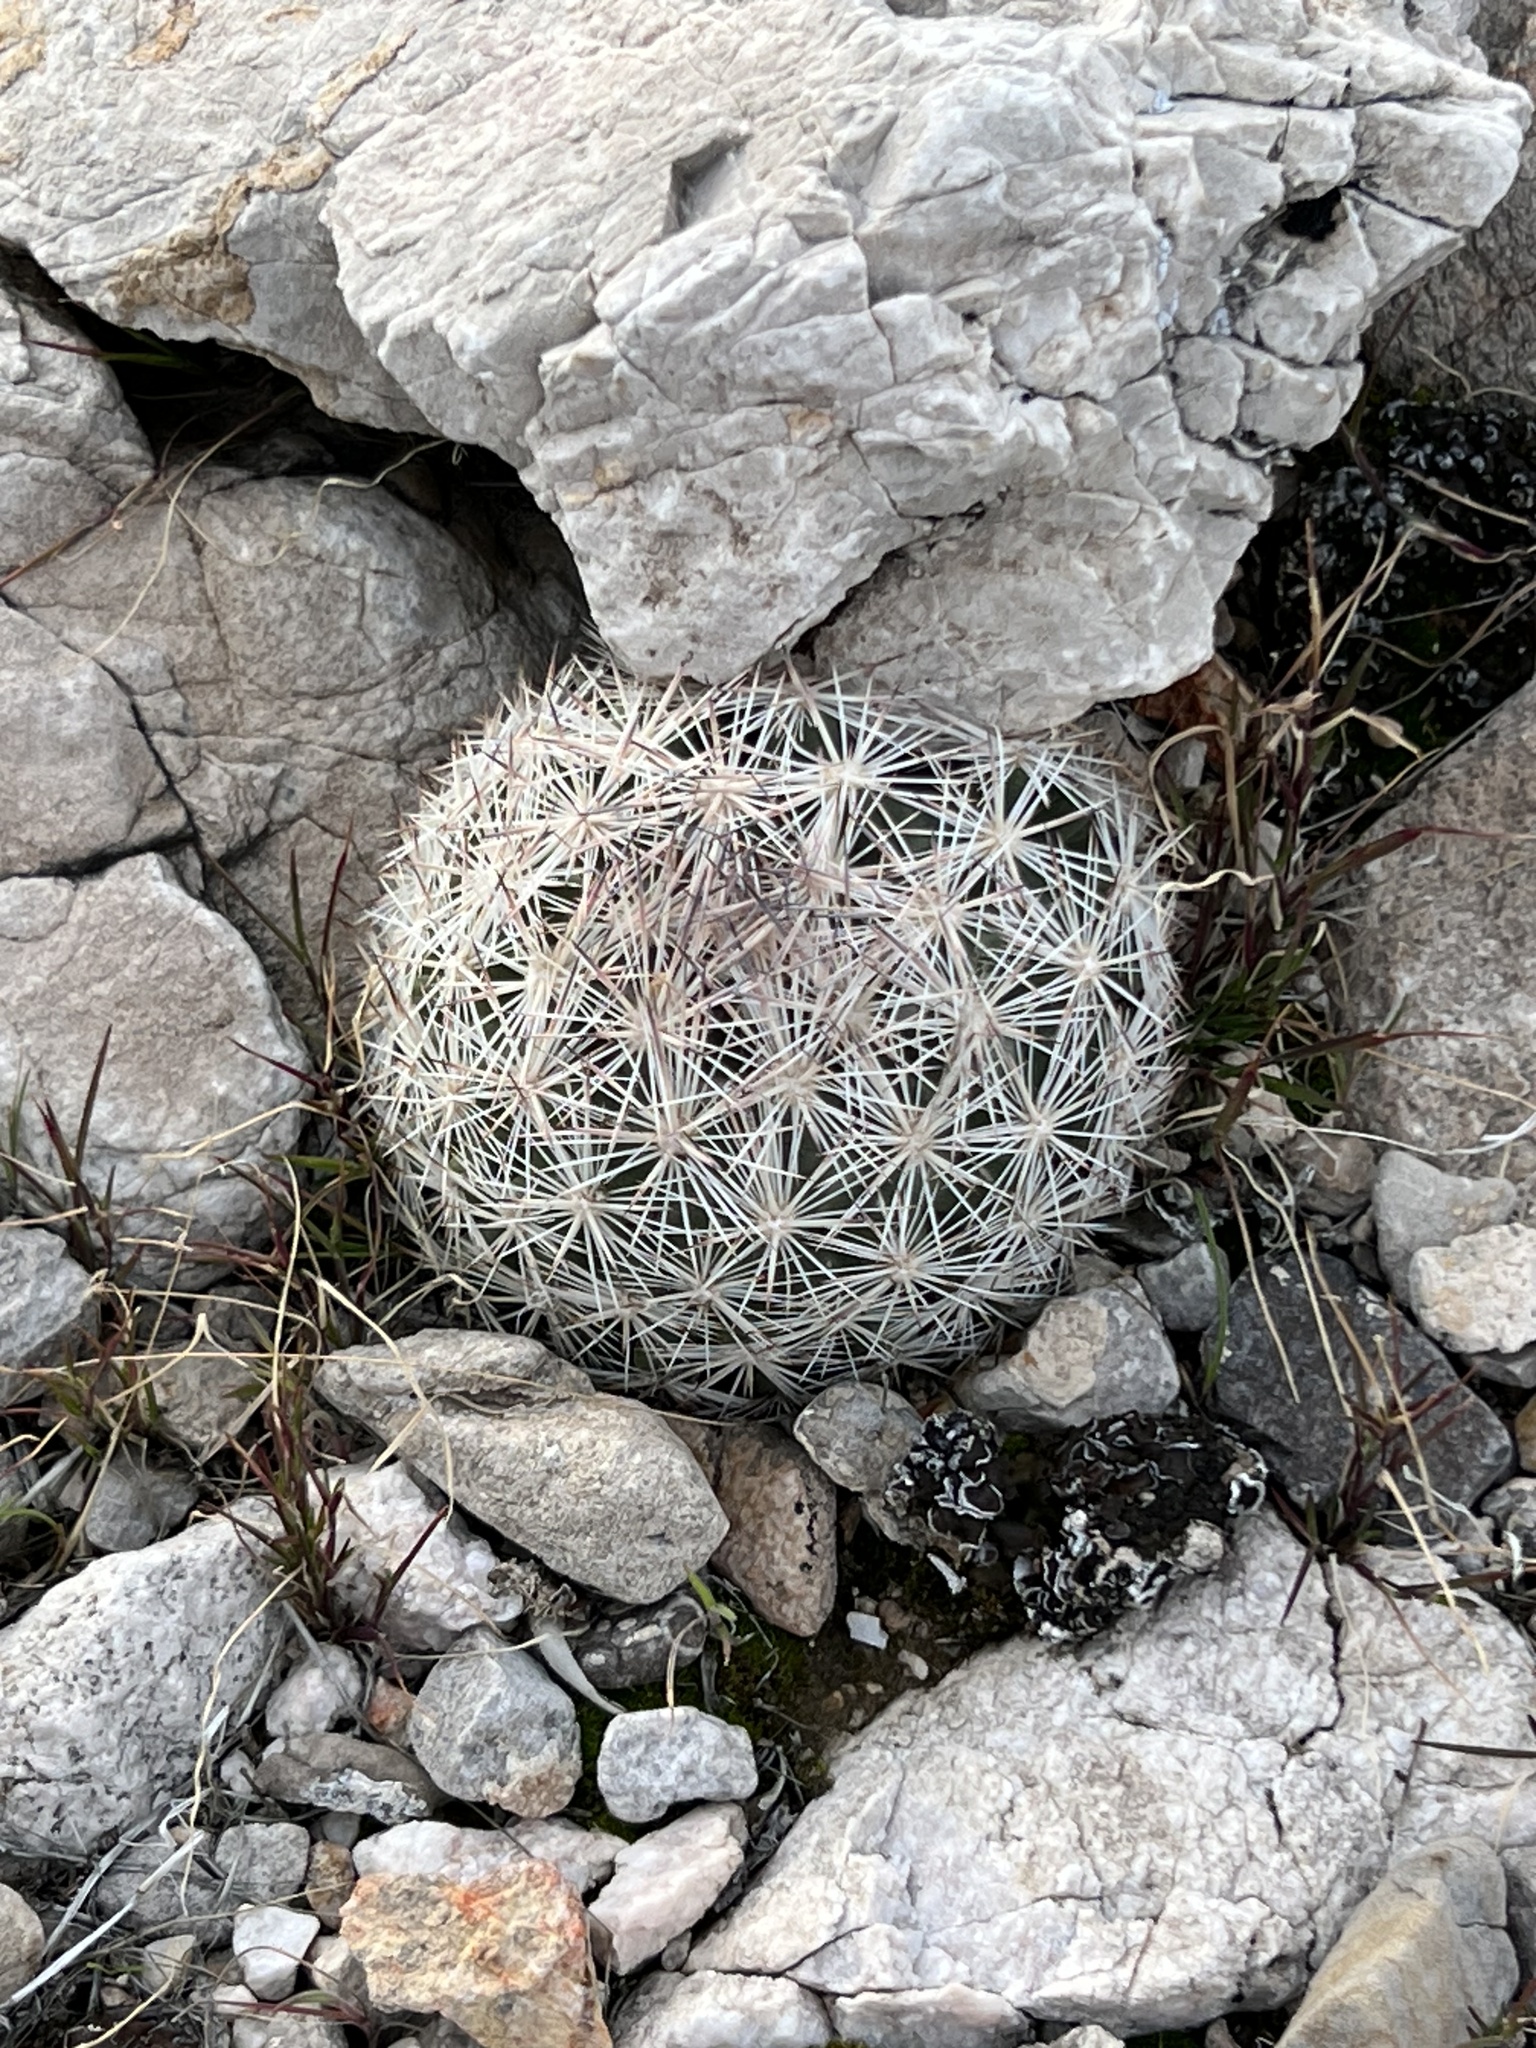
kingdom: Plantae
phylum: Tracheophyta
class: Magnoliopsida
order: Caryophyllales
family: Cactaceae
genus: Pelecyphora
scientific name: Pelecyphora dasyacantha
